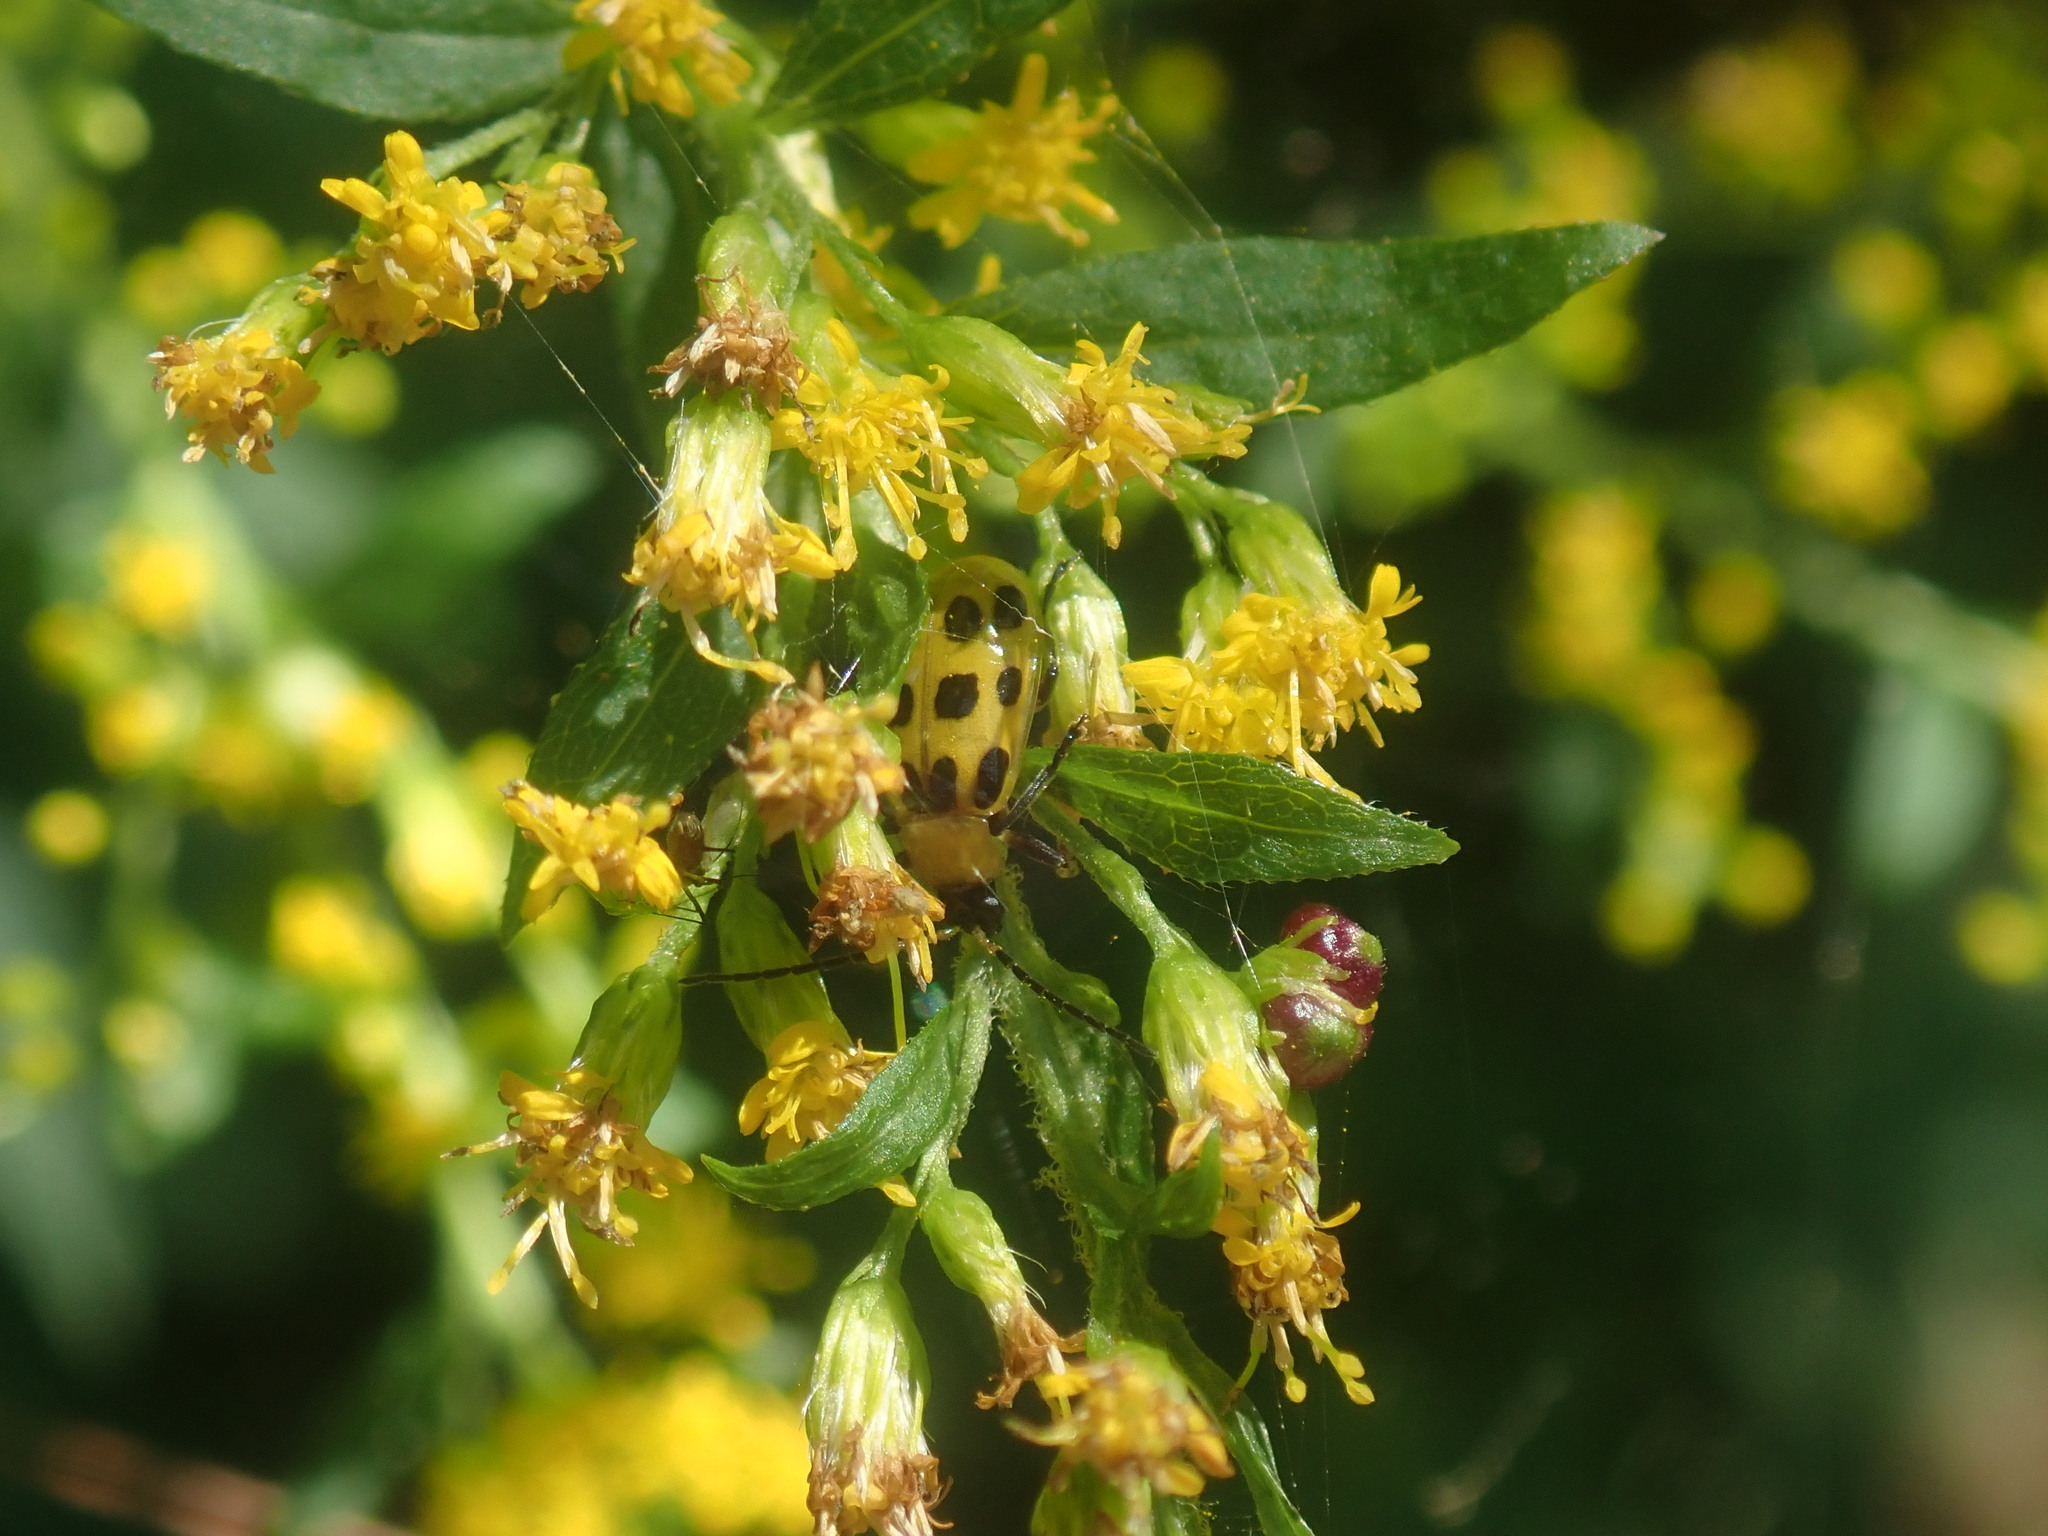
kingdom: Animalia
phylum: Arthropoda
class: Insecta
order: Coleoptera
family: Chrysomelidae
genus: Diabrotica
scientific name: Diabrotica undecimpunctata
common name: Spotted cucumber beetle
